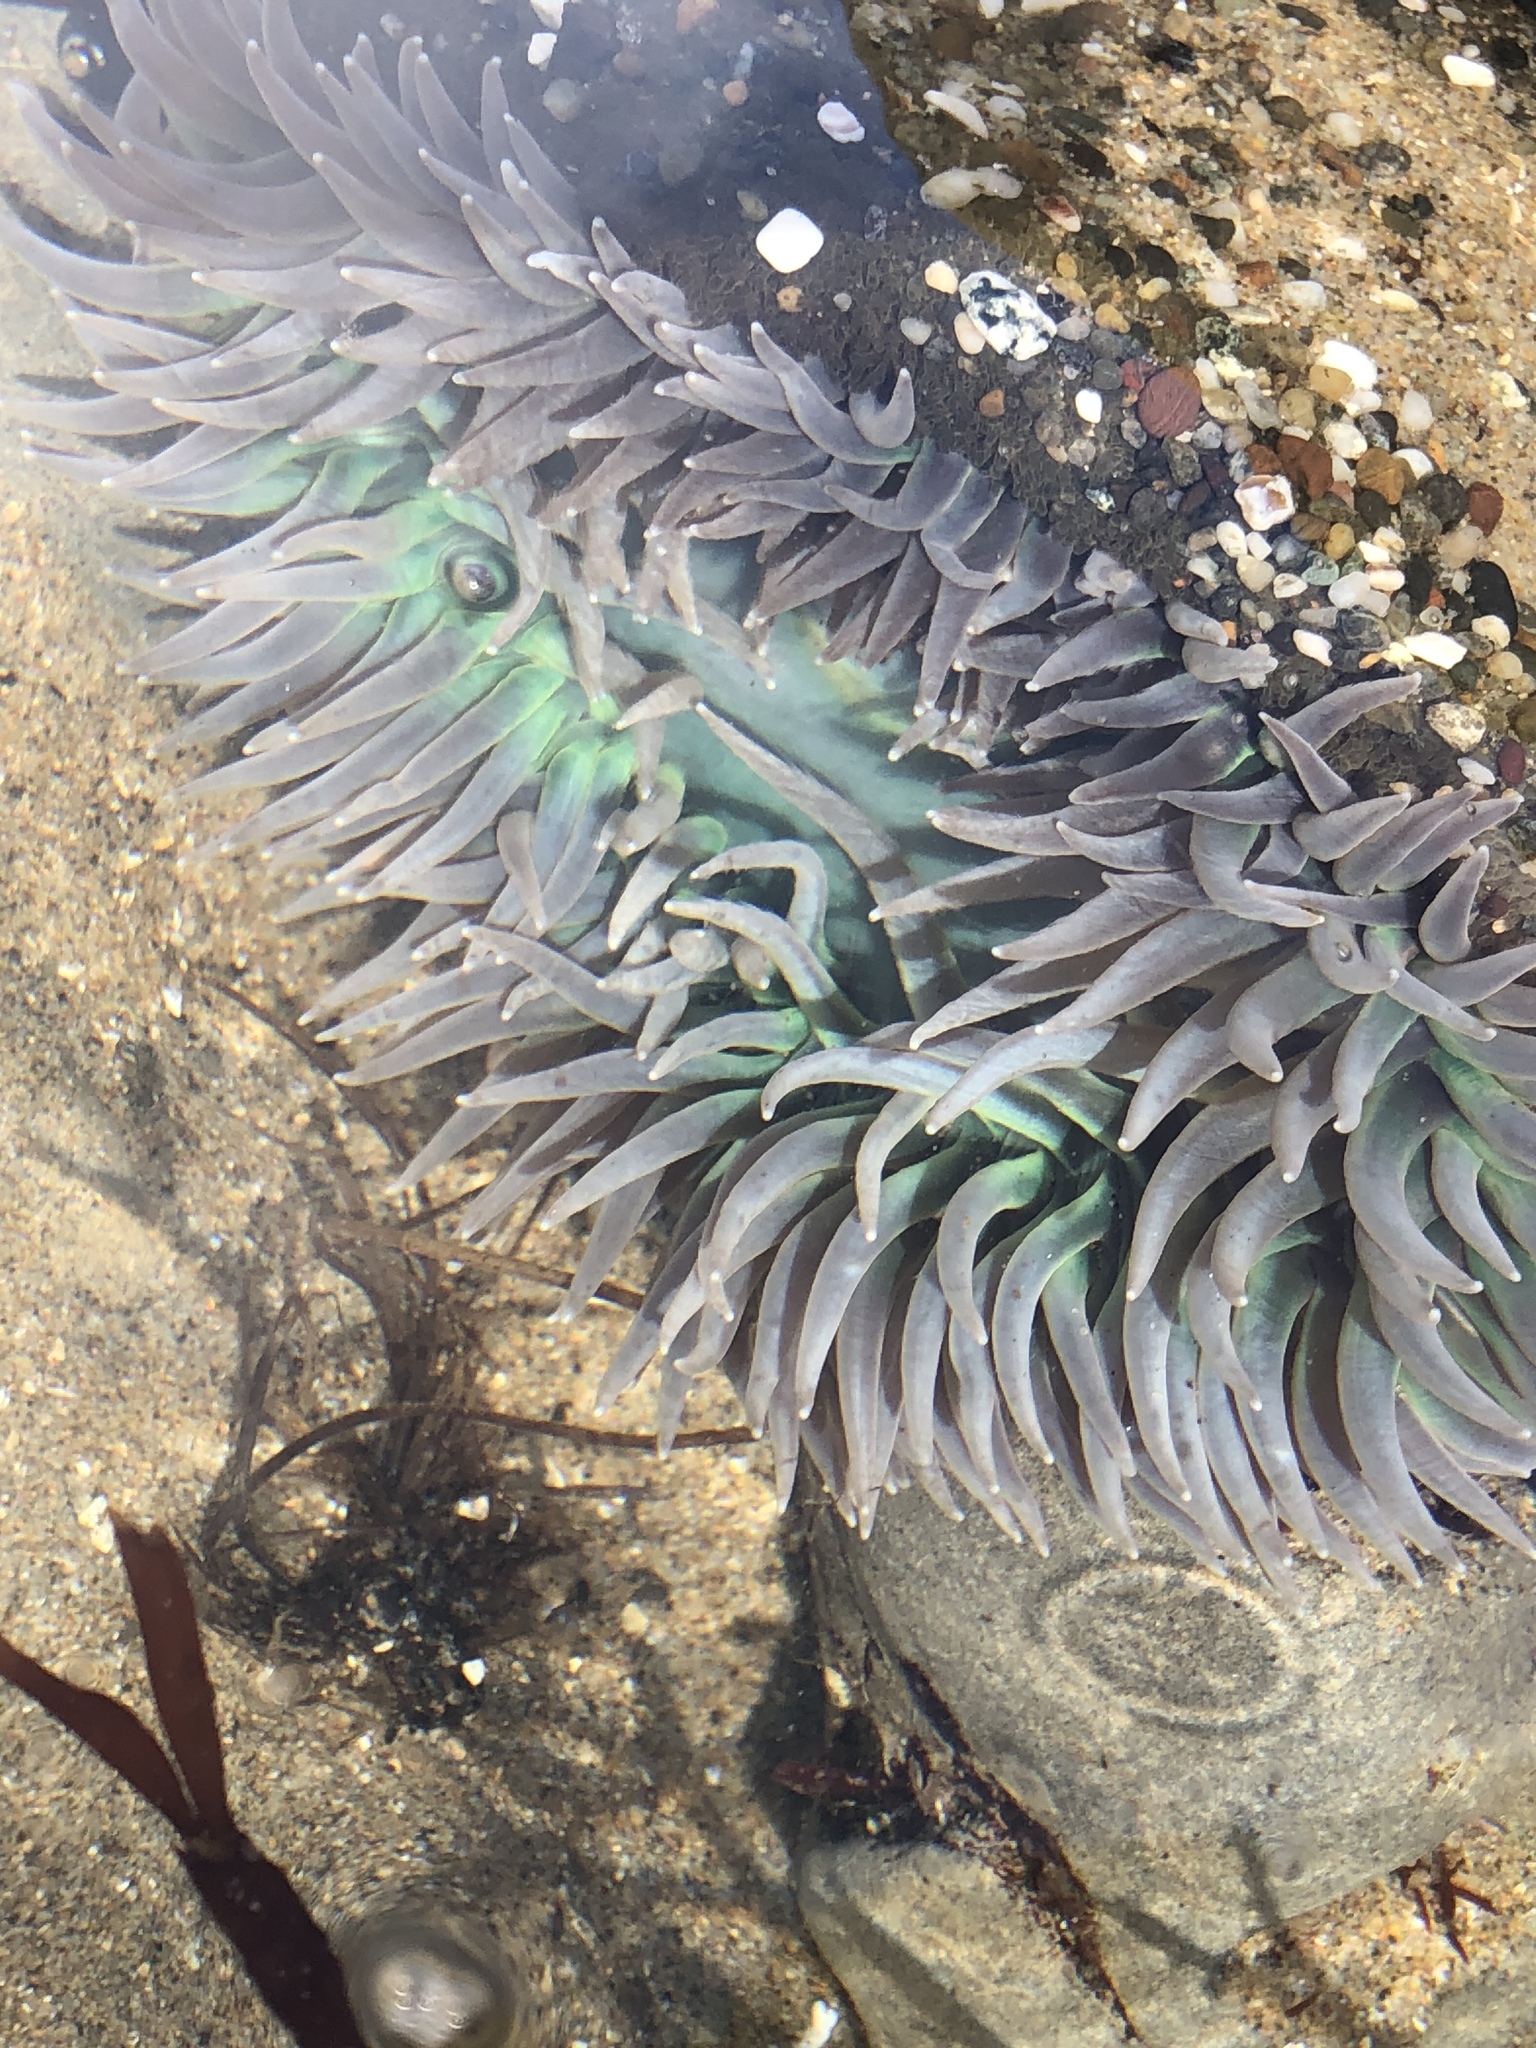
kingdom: Animalia
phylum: Cnidaria
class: Anthozoa
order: Actiniaria
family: Actiniidae
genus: Anthopleura
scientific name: Anthopleura xanthogrammica
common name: Giant green anemone
